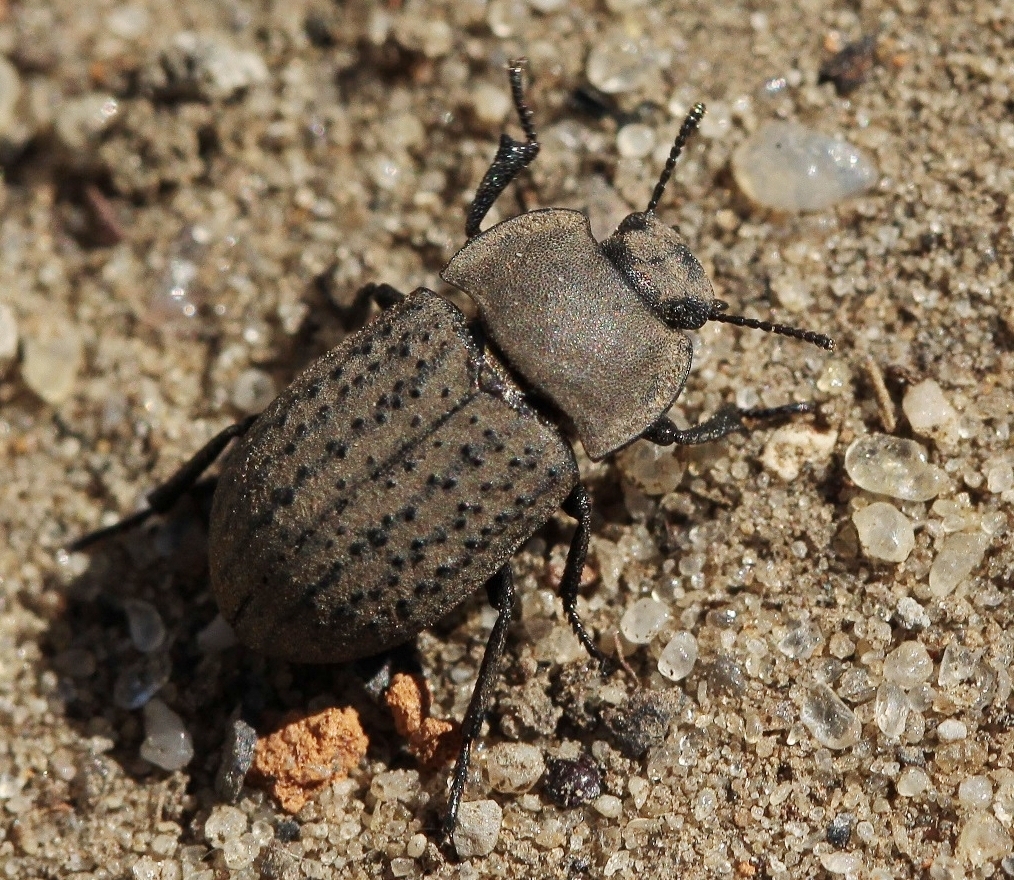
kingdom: Animalia
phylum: Arthropoda
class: Insecta
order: Coleoptera
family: Tenebrionidae
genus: Opatrum
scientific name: Opatrum sabulosum
